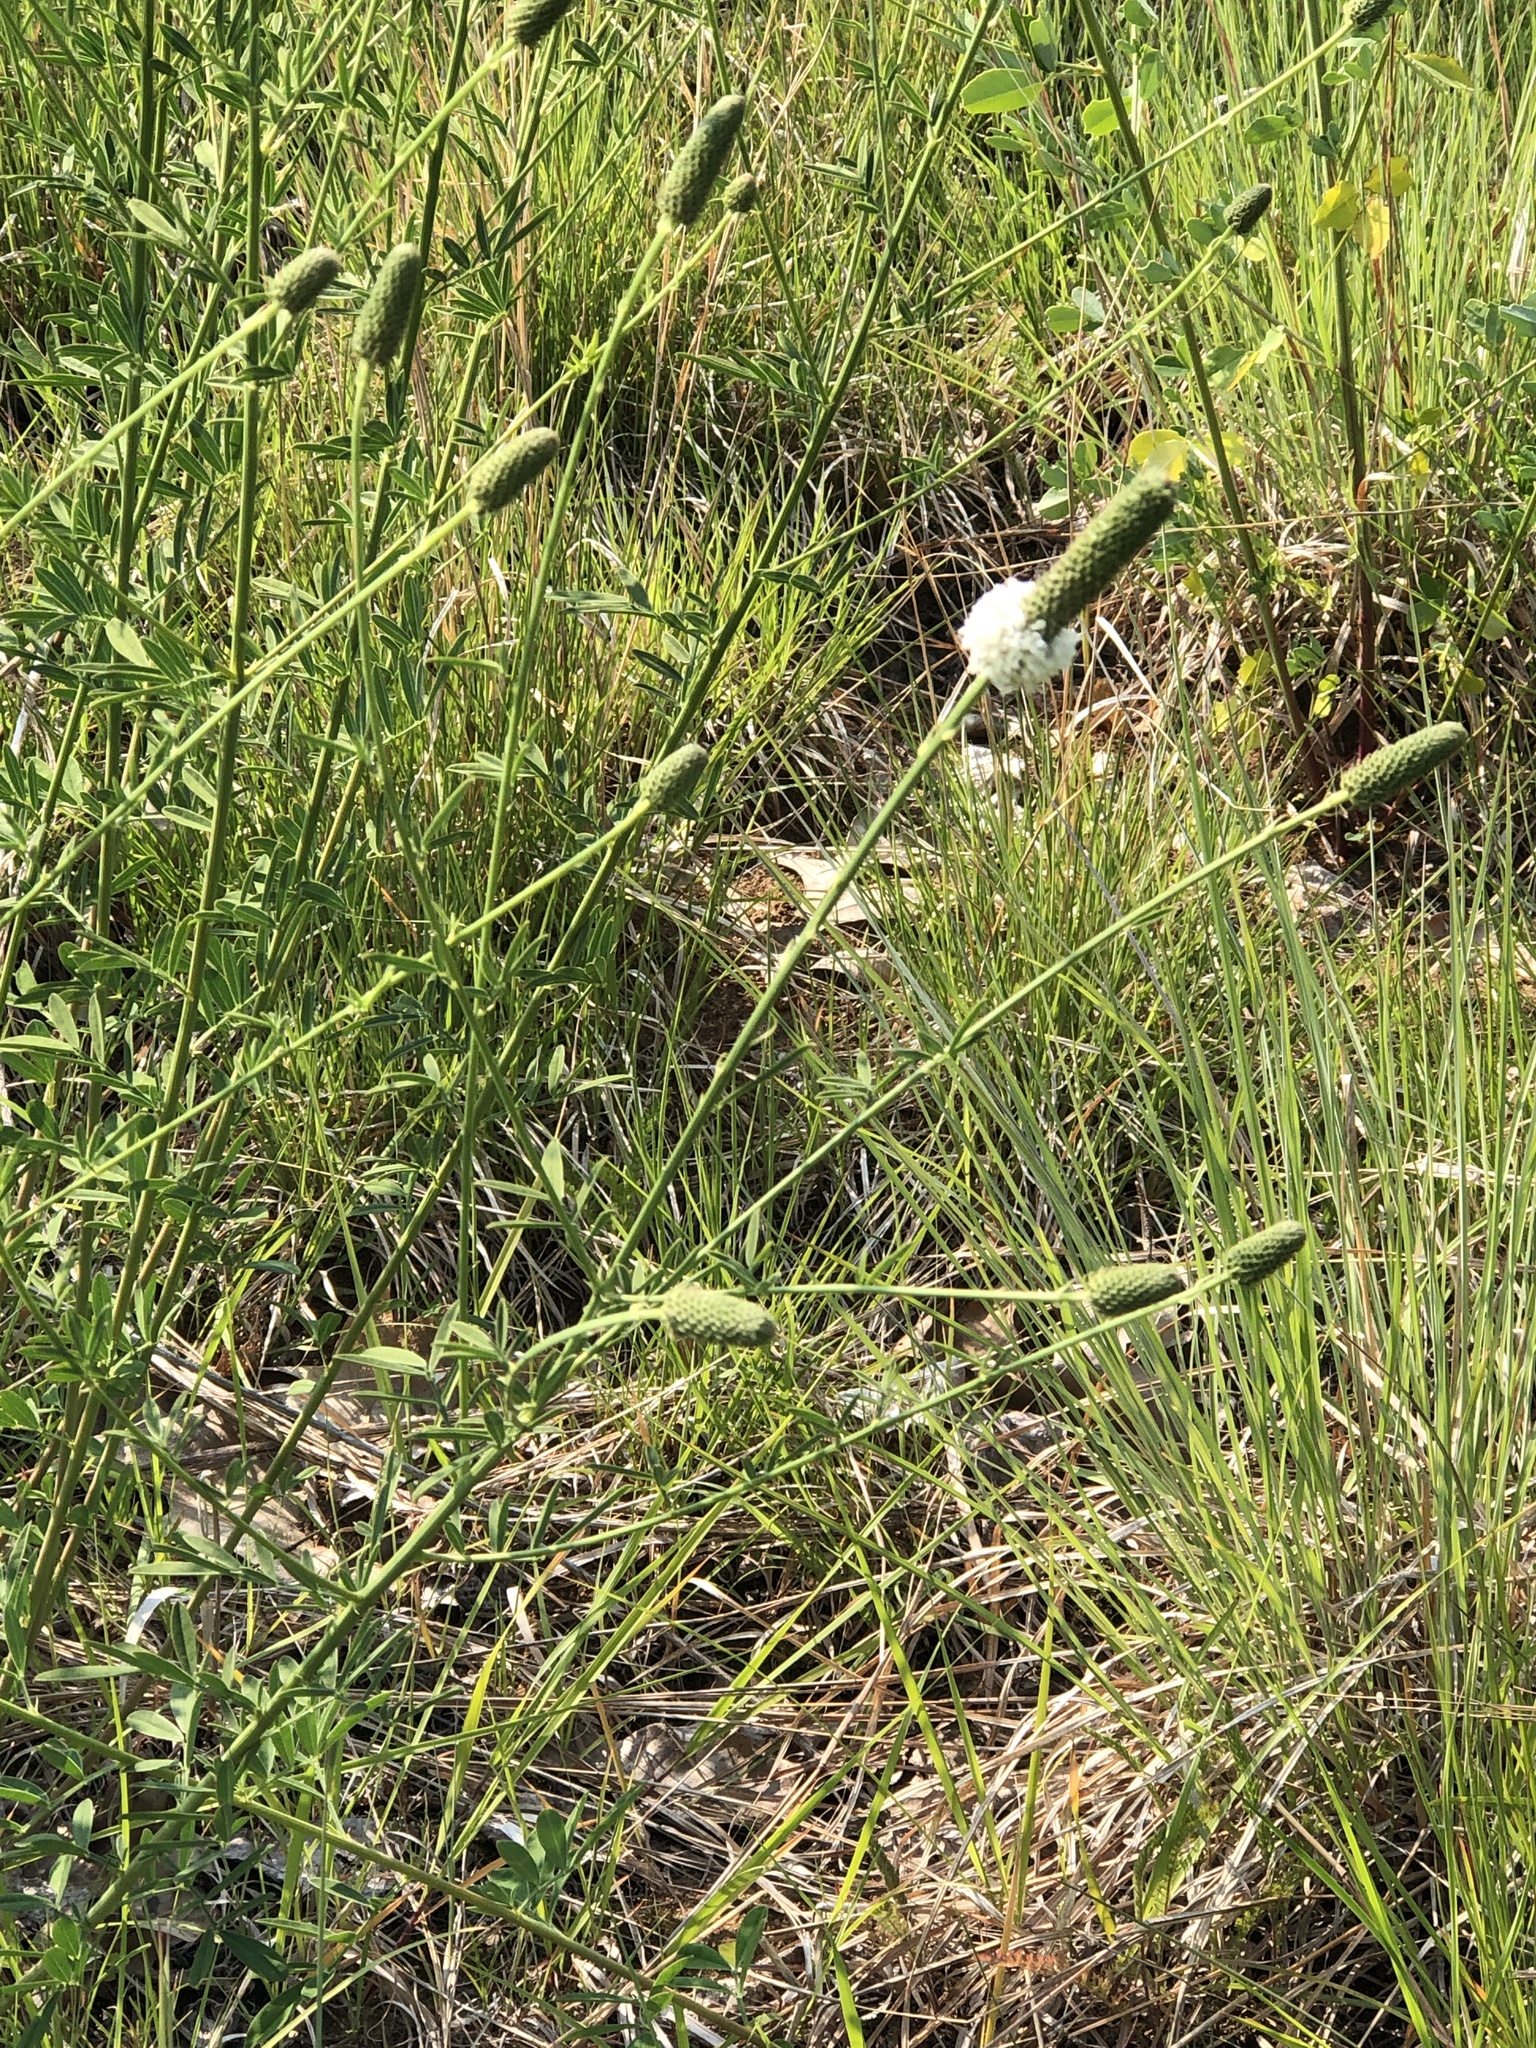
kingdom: Plantae
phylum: Tracheophyta
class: Magnoliopsida
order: Fabales
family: Fabaceae
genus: Dalea
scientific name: Dalea candida
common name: White prairie-clover
